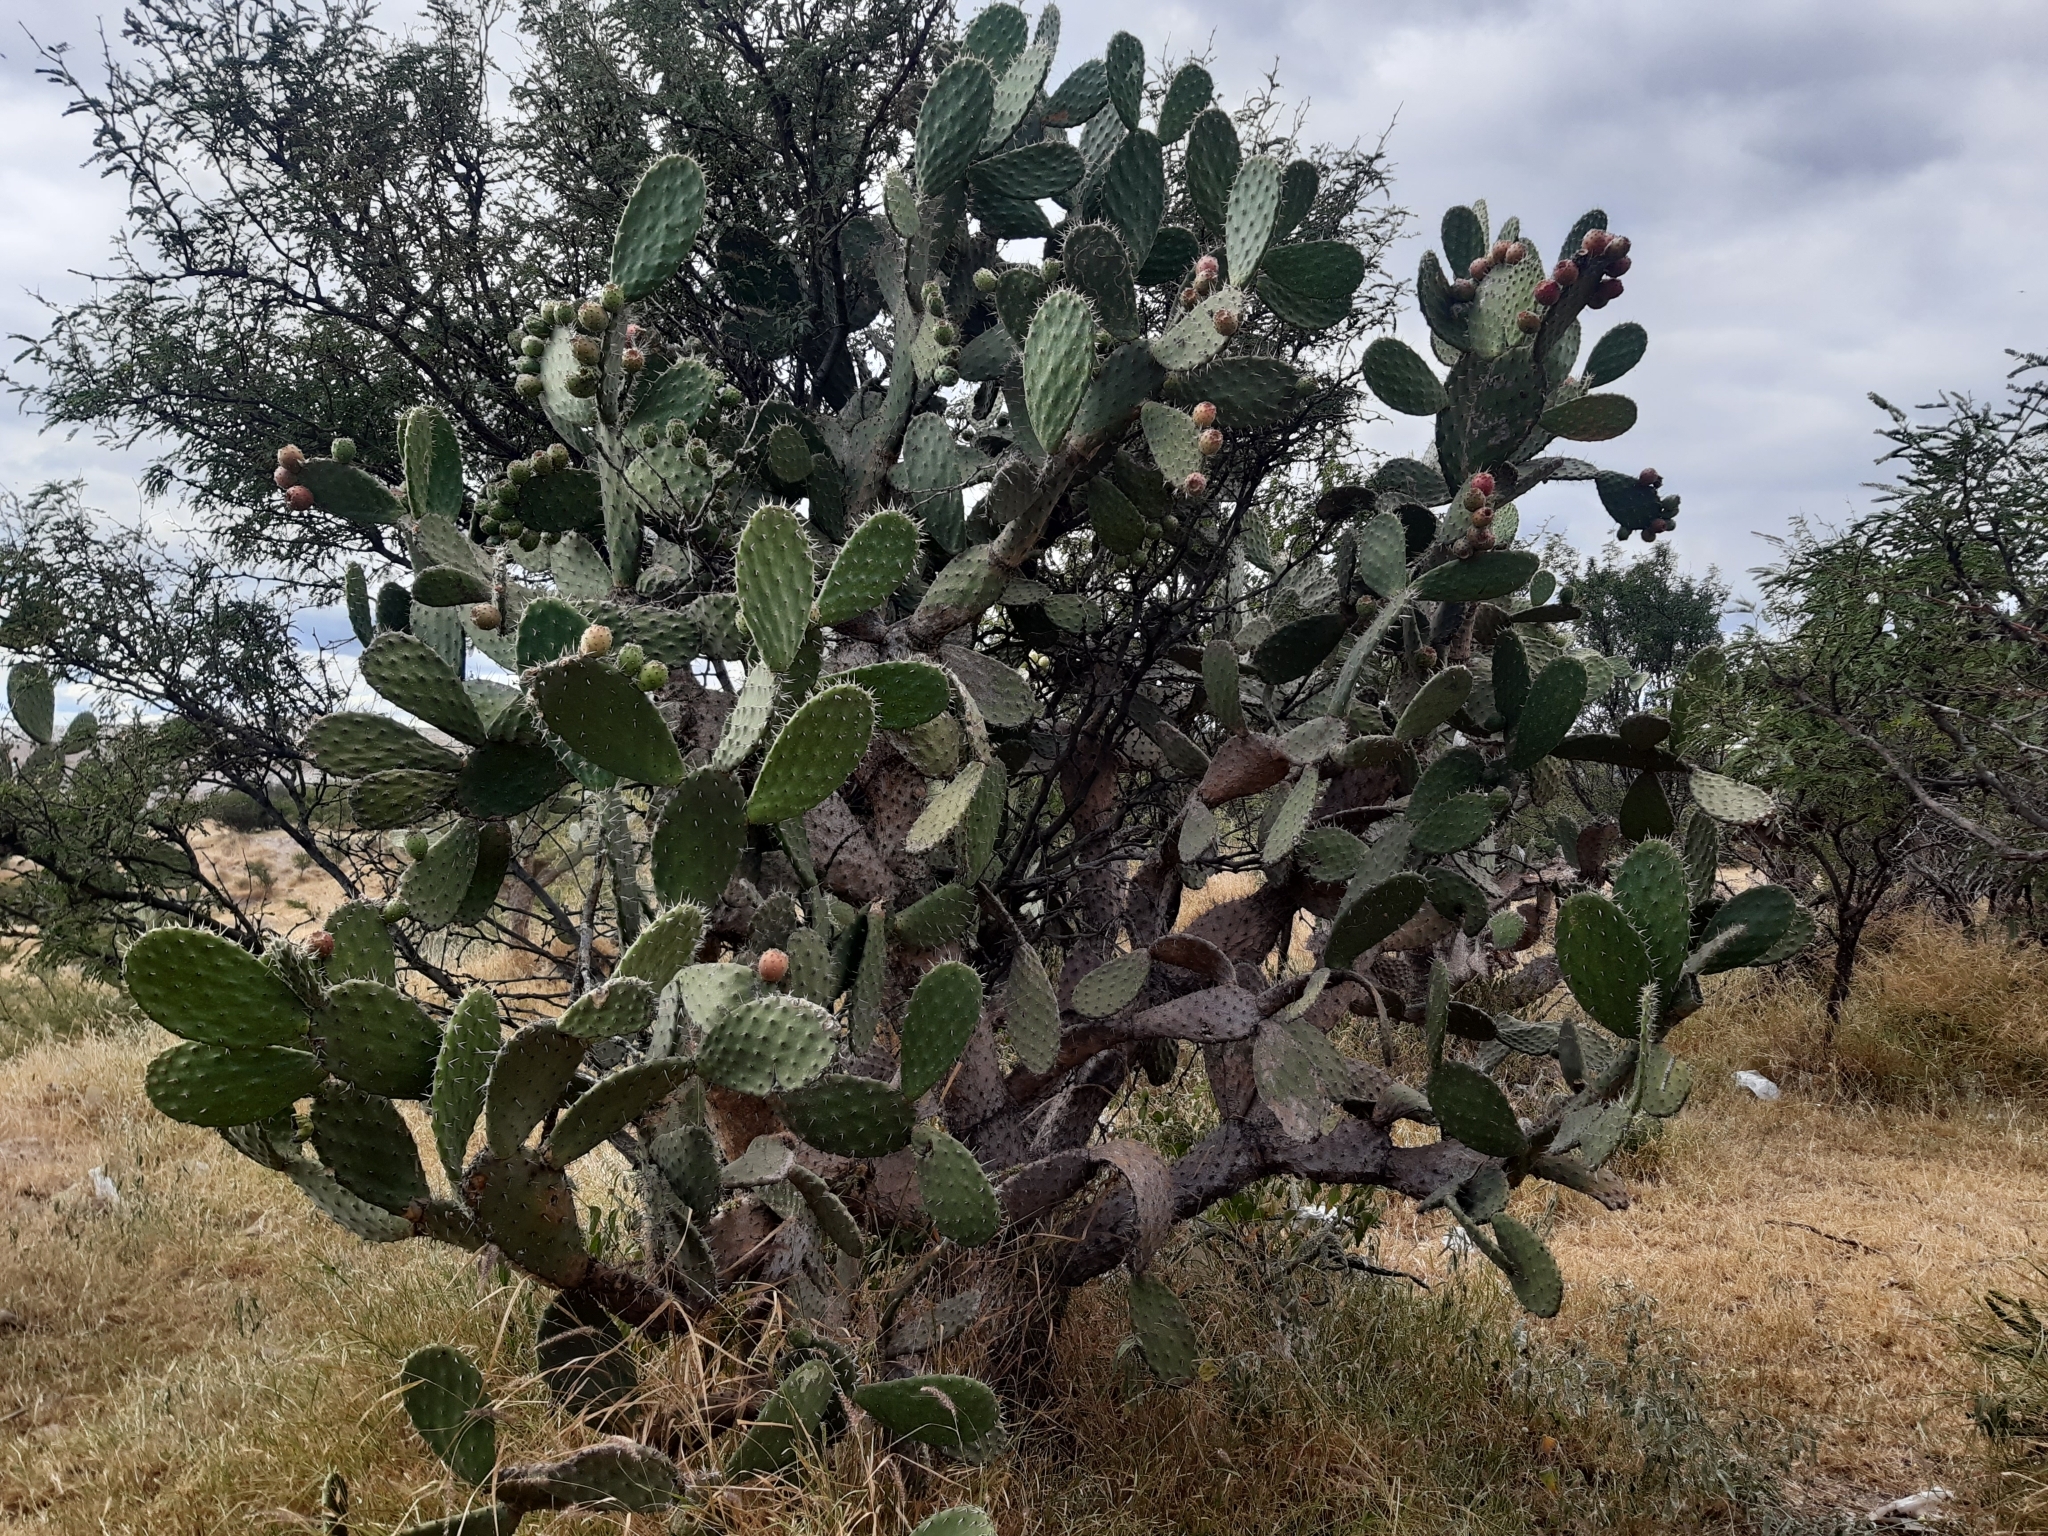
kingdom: Plantae
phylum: Tracheophyta
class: Magnoliopsida
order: Caryophyllales
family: Cactaceae
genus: Opuntia
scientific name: Opuntia tomentosa
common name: Woollyjoint pricklypear
